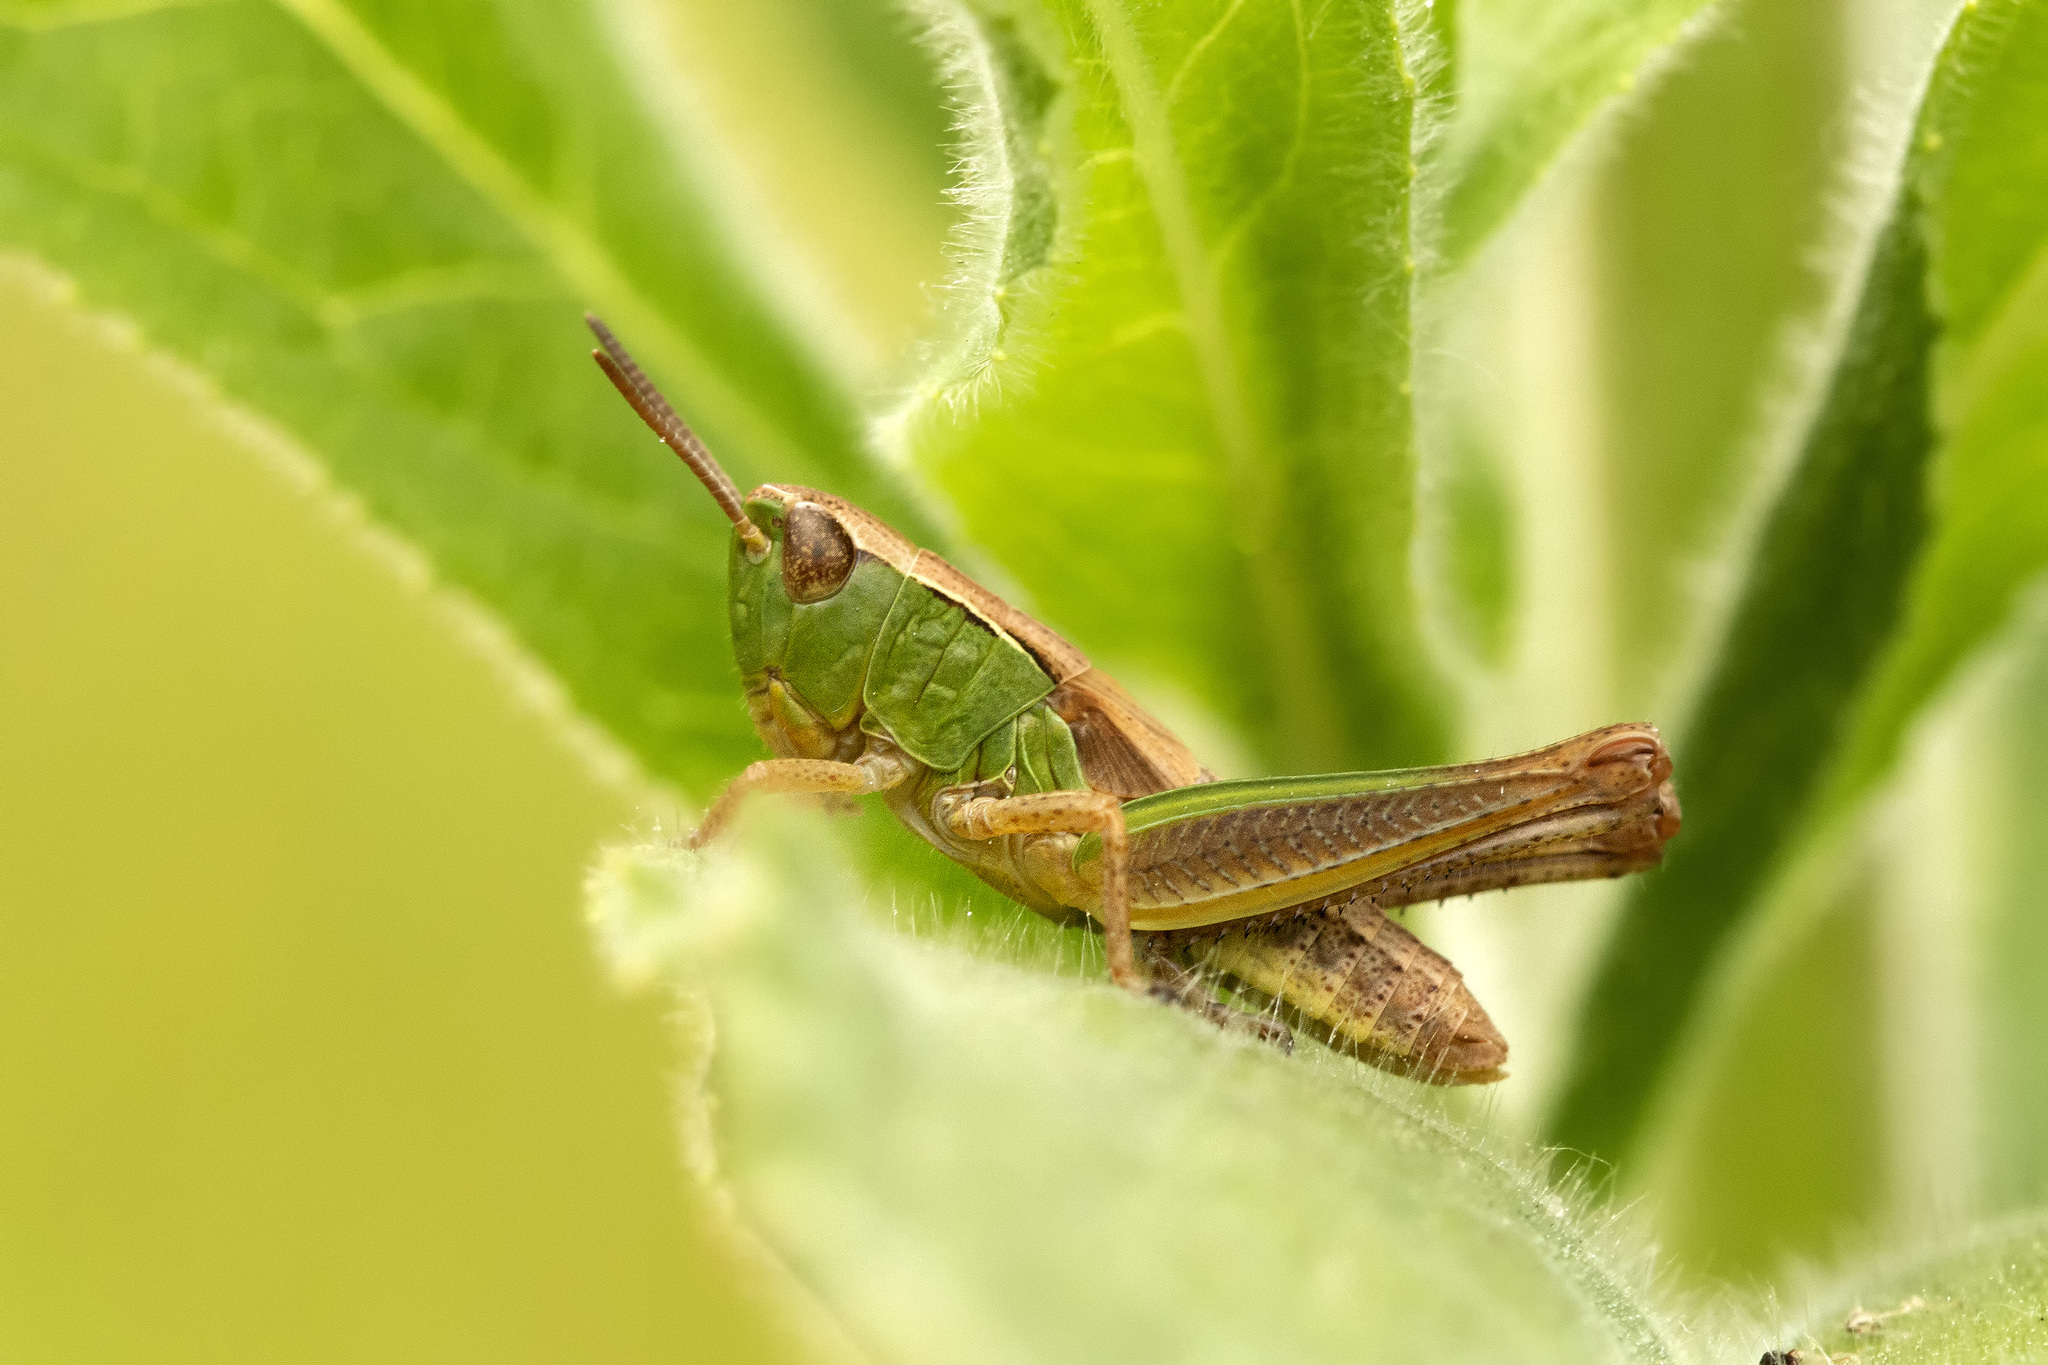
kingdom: Animalia
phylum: Arthropoda
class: Insecta
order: Orthoptera
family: Acrididae
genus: Pseudochorthippus
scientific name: Pseudochorthippus parallelus
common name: Meadow grasshopper
